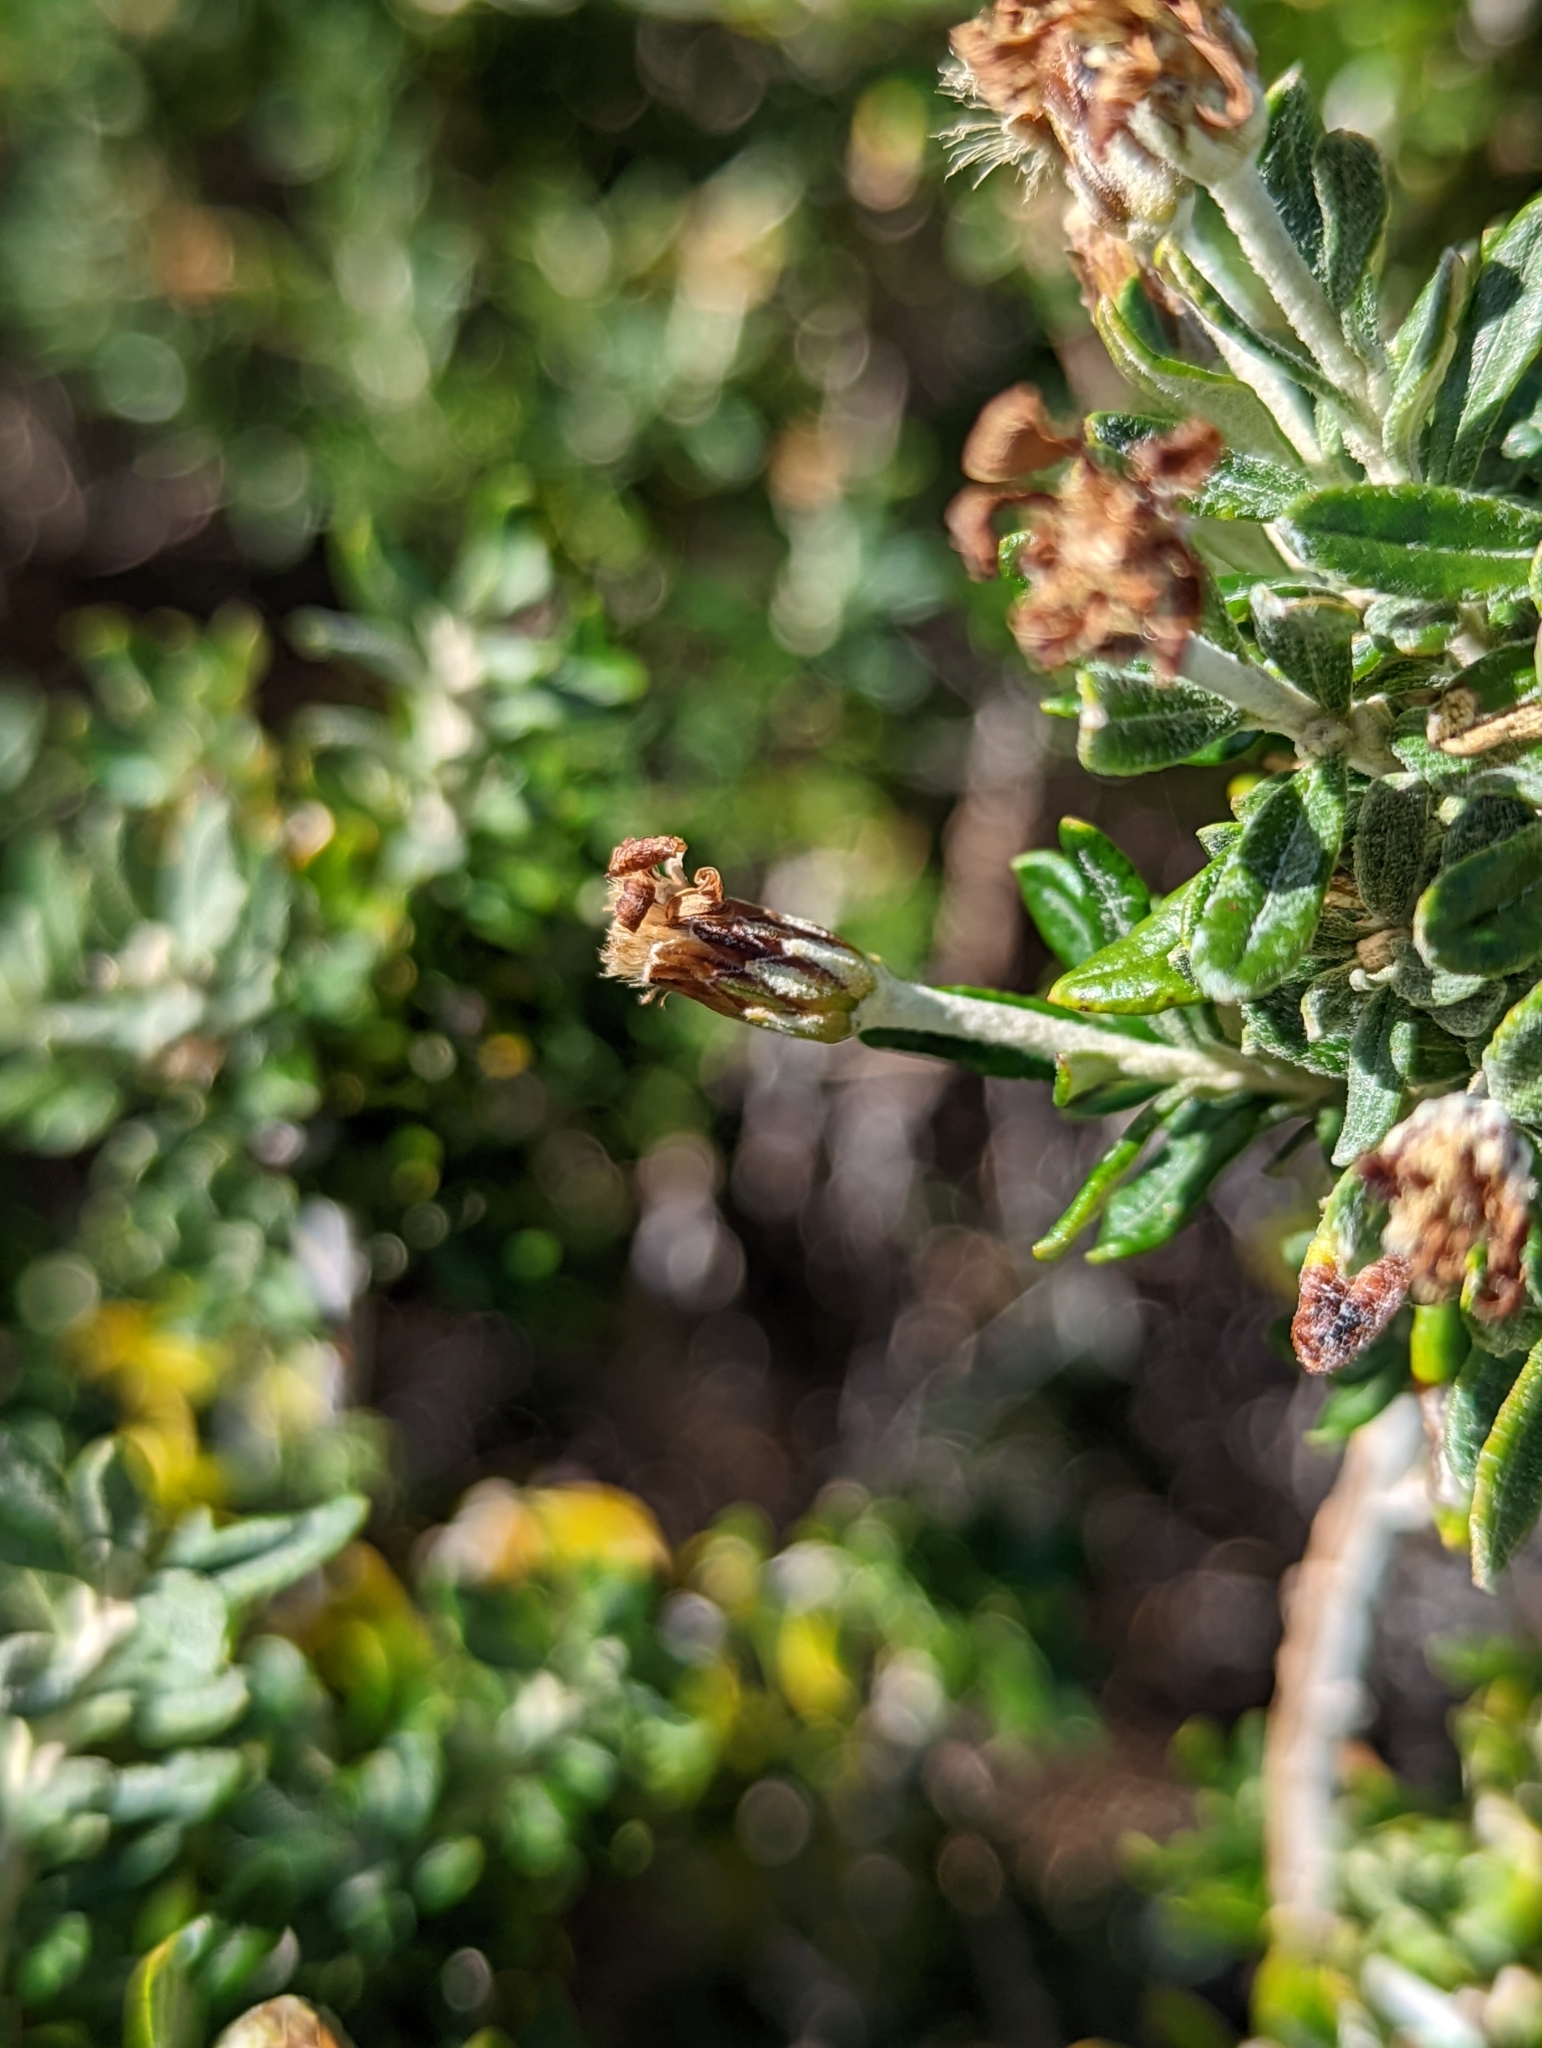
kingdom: Plantae
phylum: Tracheophyta
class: Magnoliopsida
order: Asterales
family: Asteraceae
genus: Chiliotrichum
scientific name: Chiliotrichum diffusum
